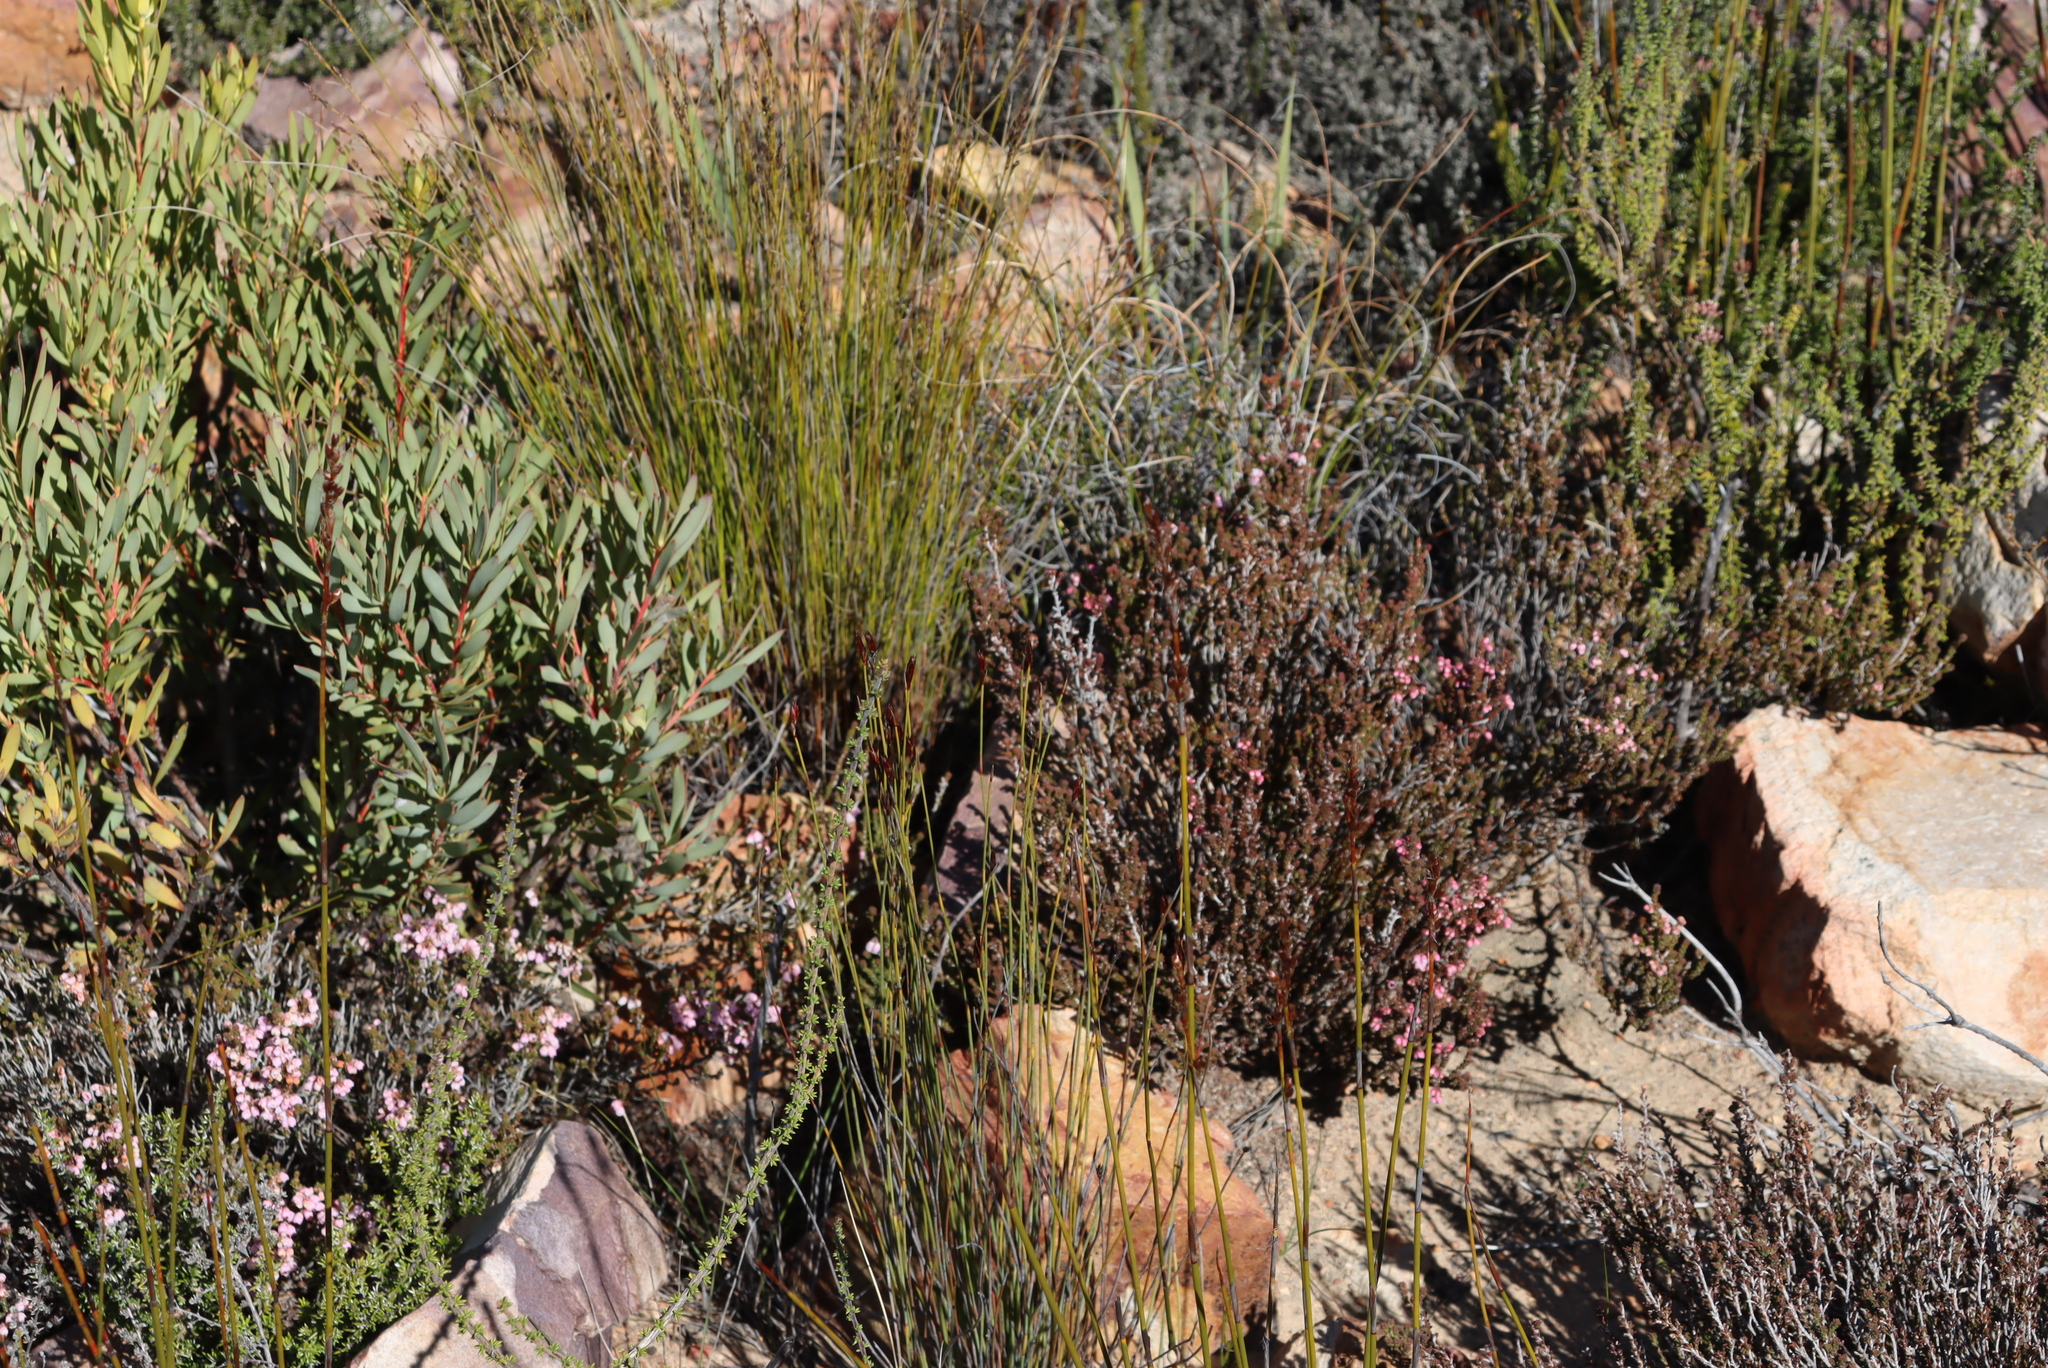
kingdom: Plantae
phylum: Tracheophyta
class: Magnoliopsida
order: Ericales
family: Ericaceae
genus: Erica
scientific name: Erica umbelliflora
